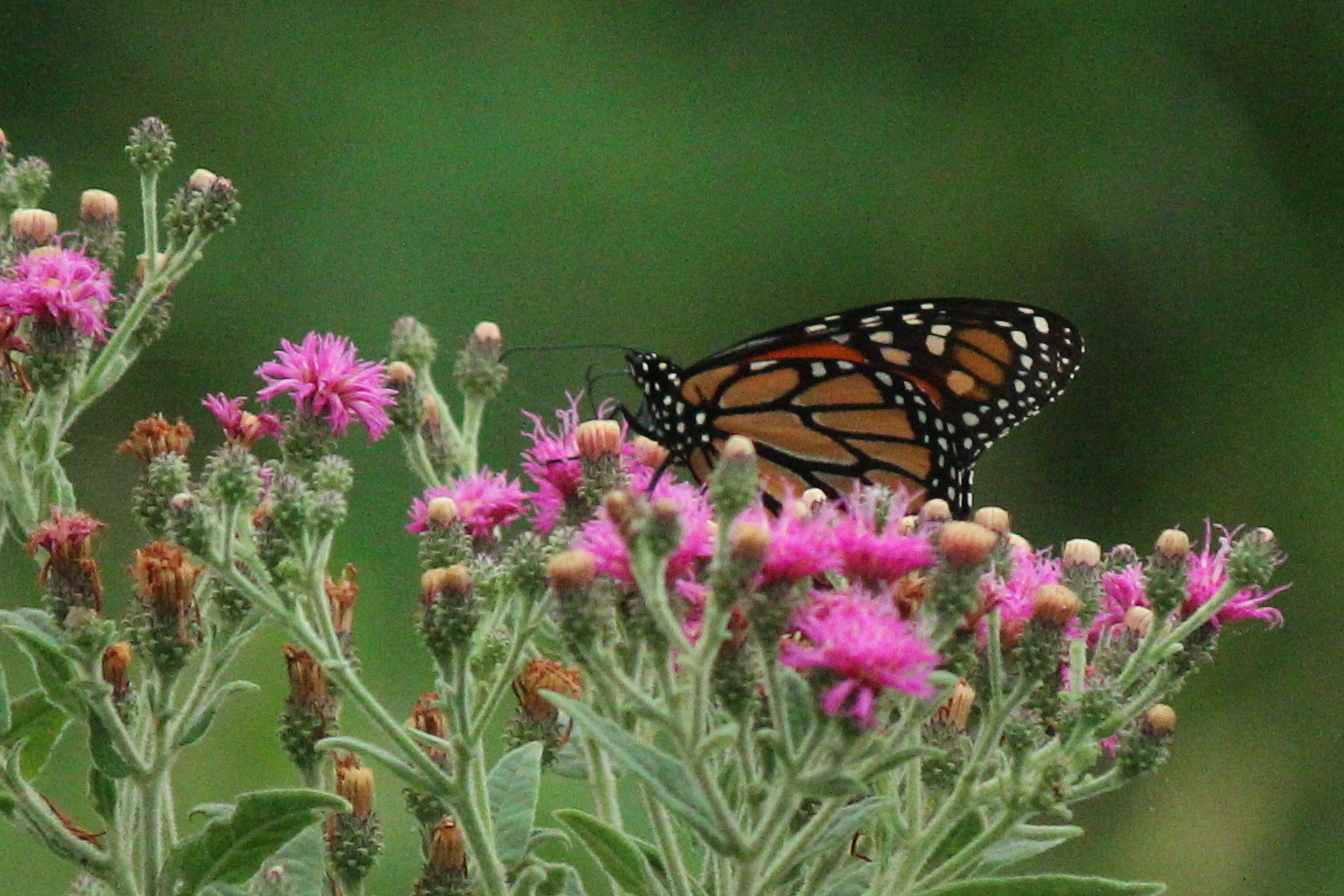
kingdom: Animalia
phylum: Arthropoda
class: Insecta
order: Lepidoptera
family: Nymphalidae
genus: Danaus
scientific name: Danaus plexippus
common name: Monarch
